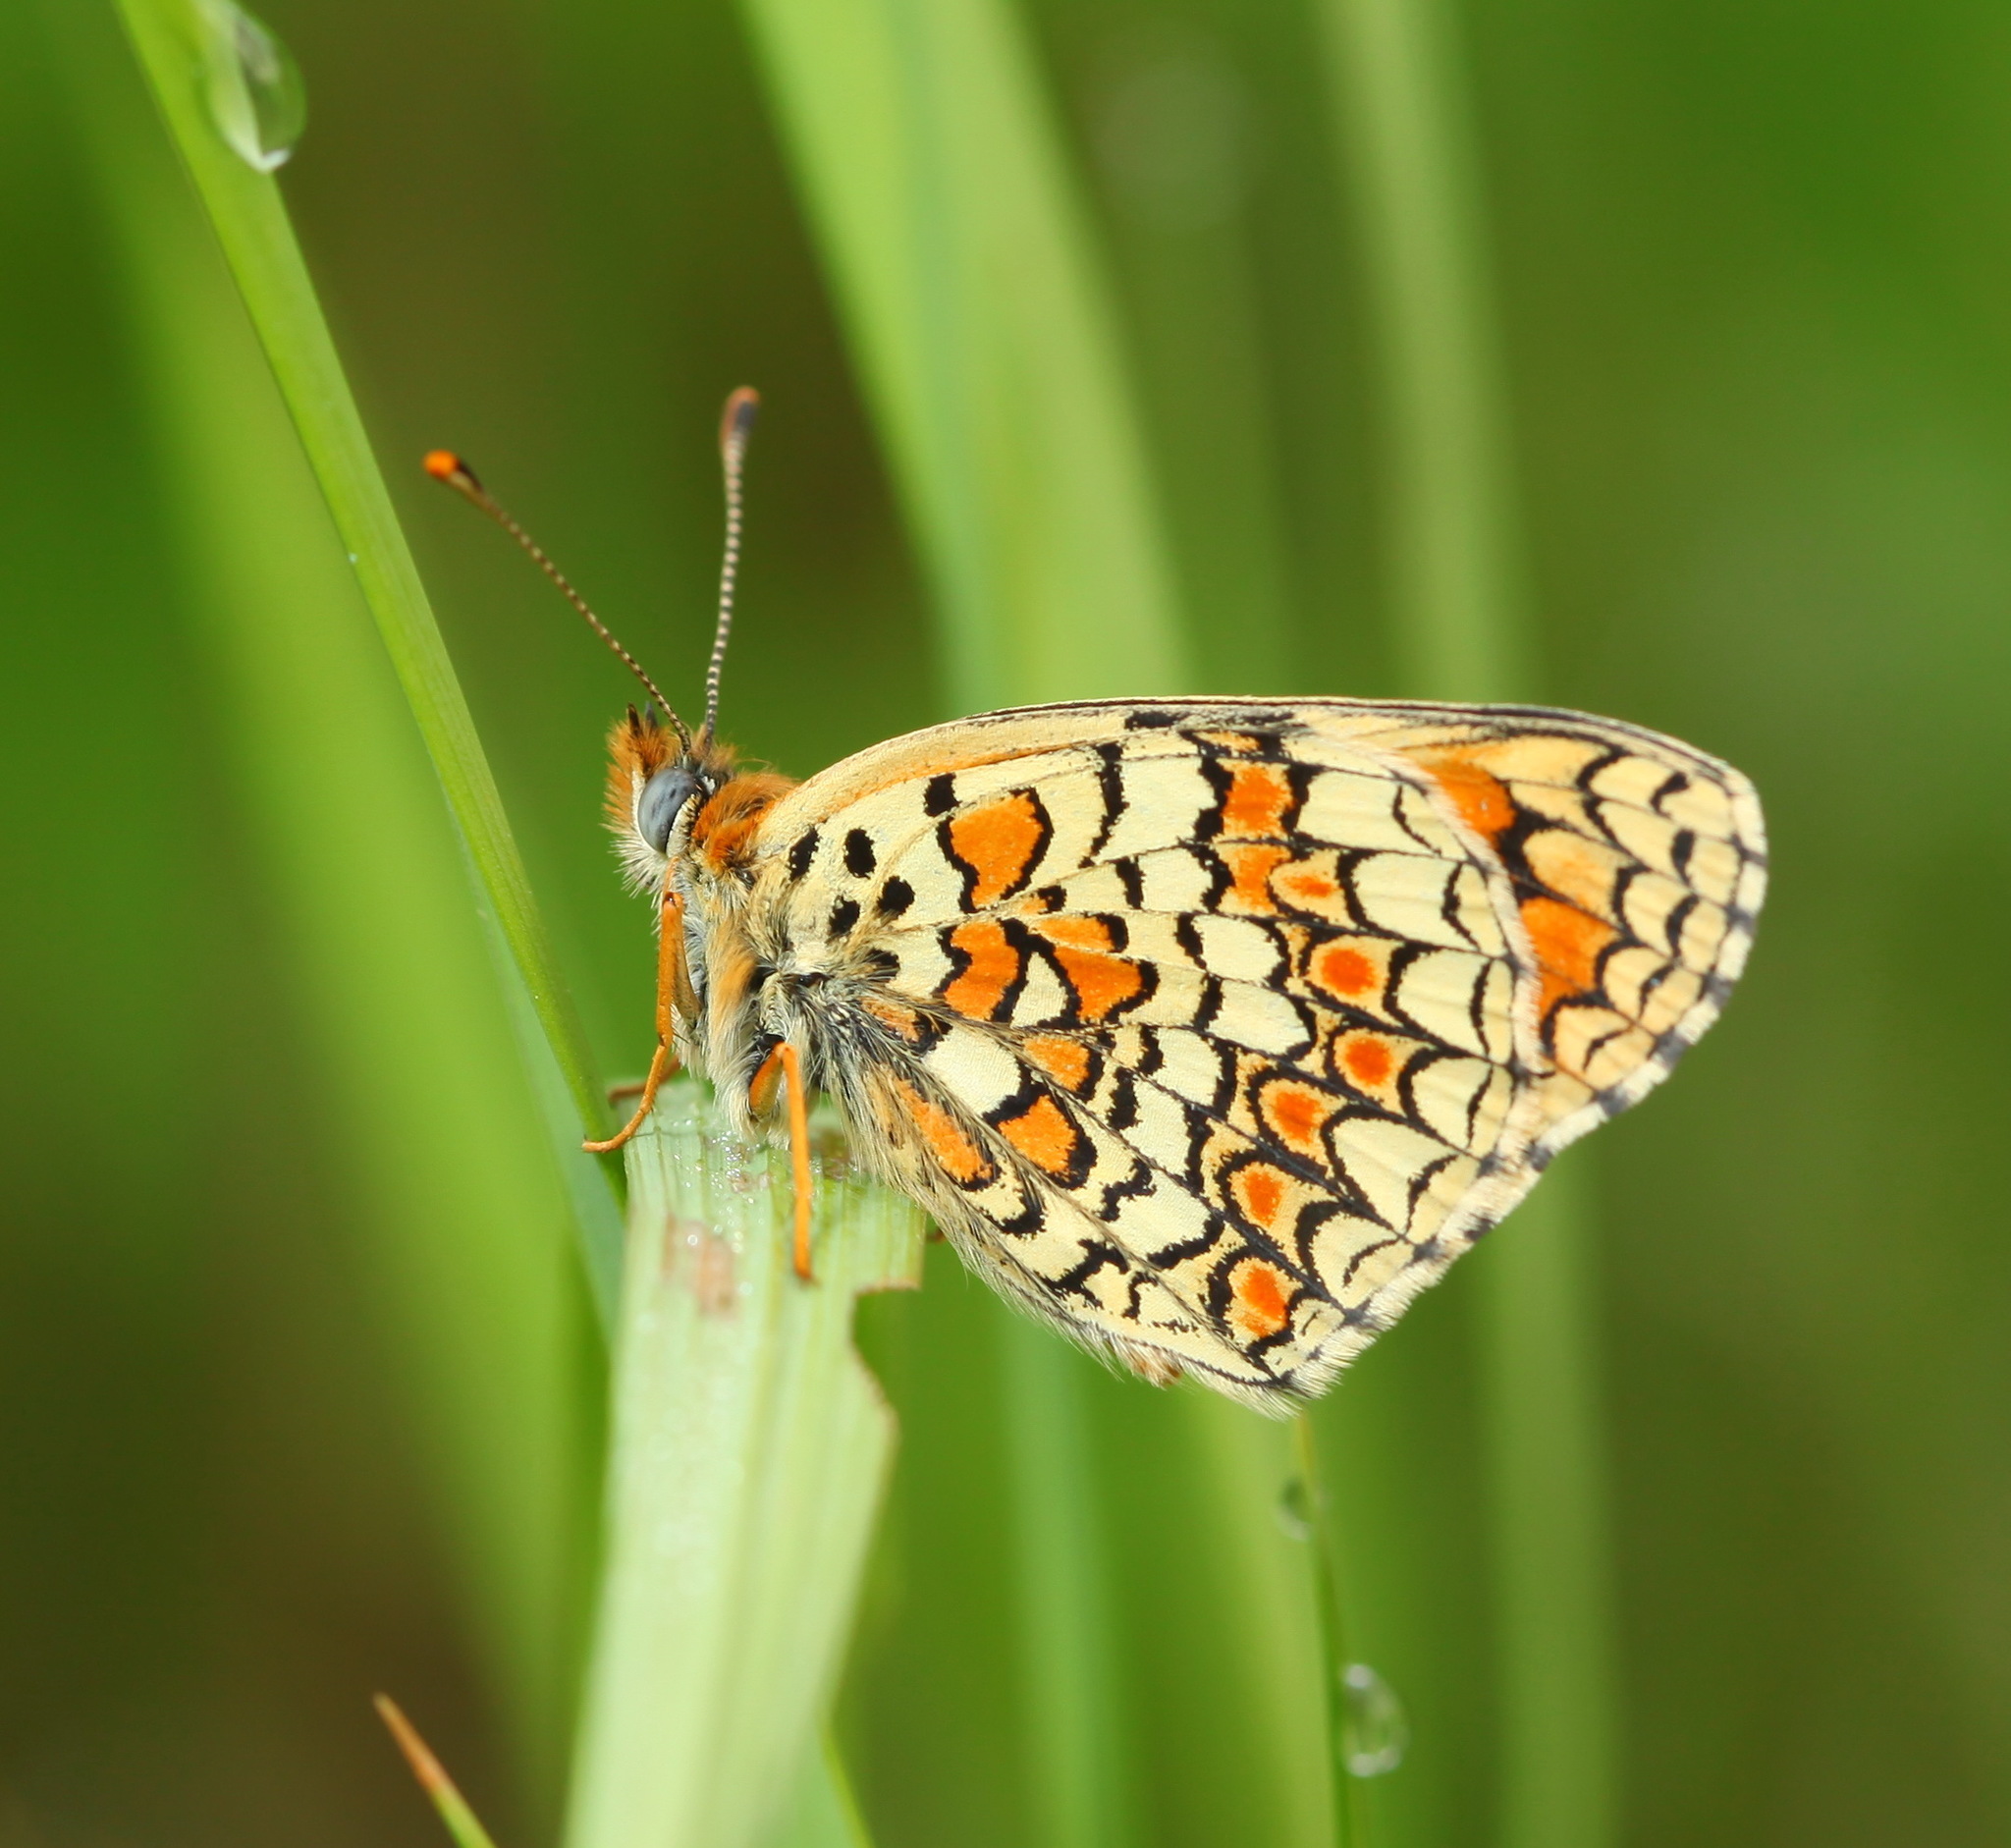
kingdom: Animalia
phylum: Arthropoda
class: Insecta
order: Lepidoptera
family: Nymphalidae
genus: Melitaea
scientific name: Melitaea phoebe
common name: Knapweed fritillary
